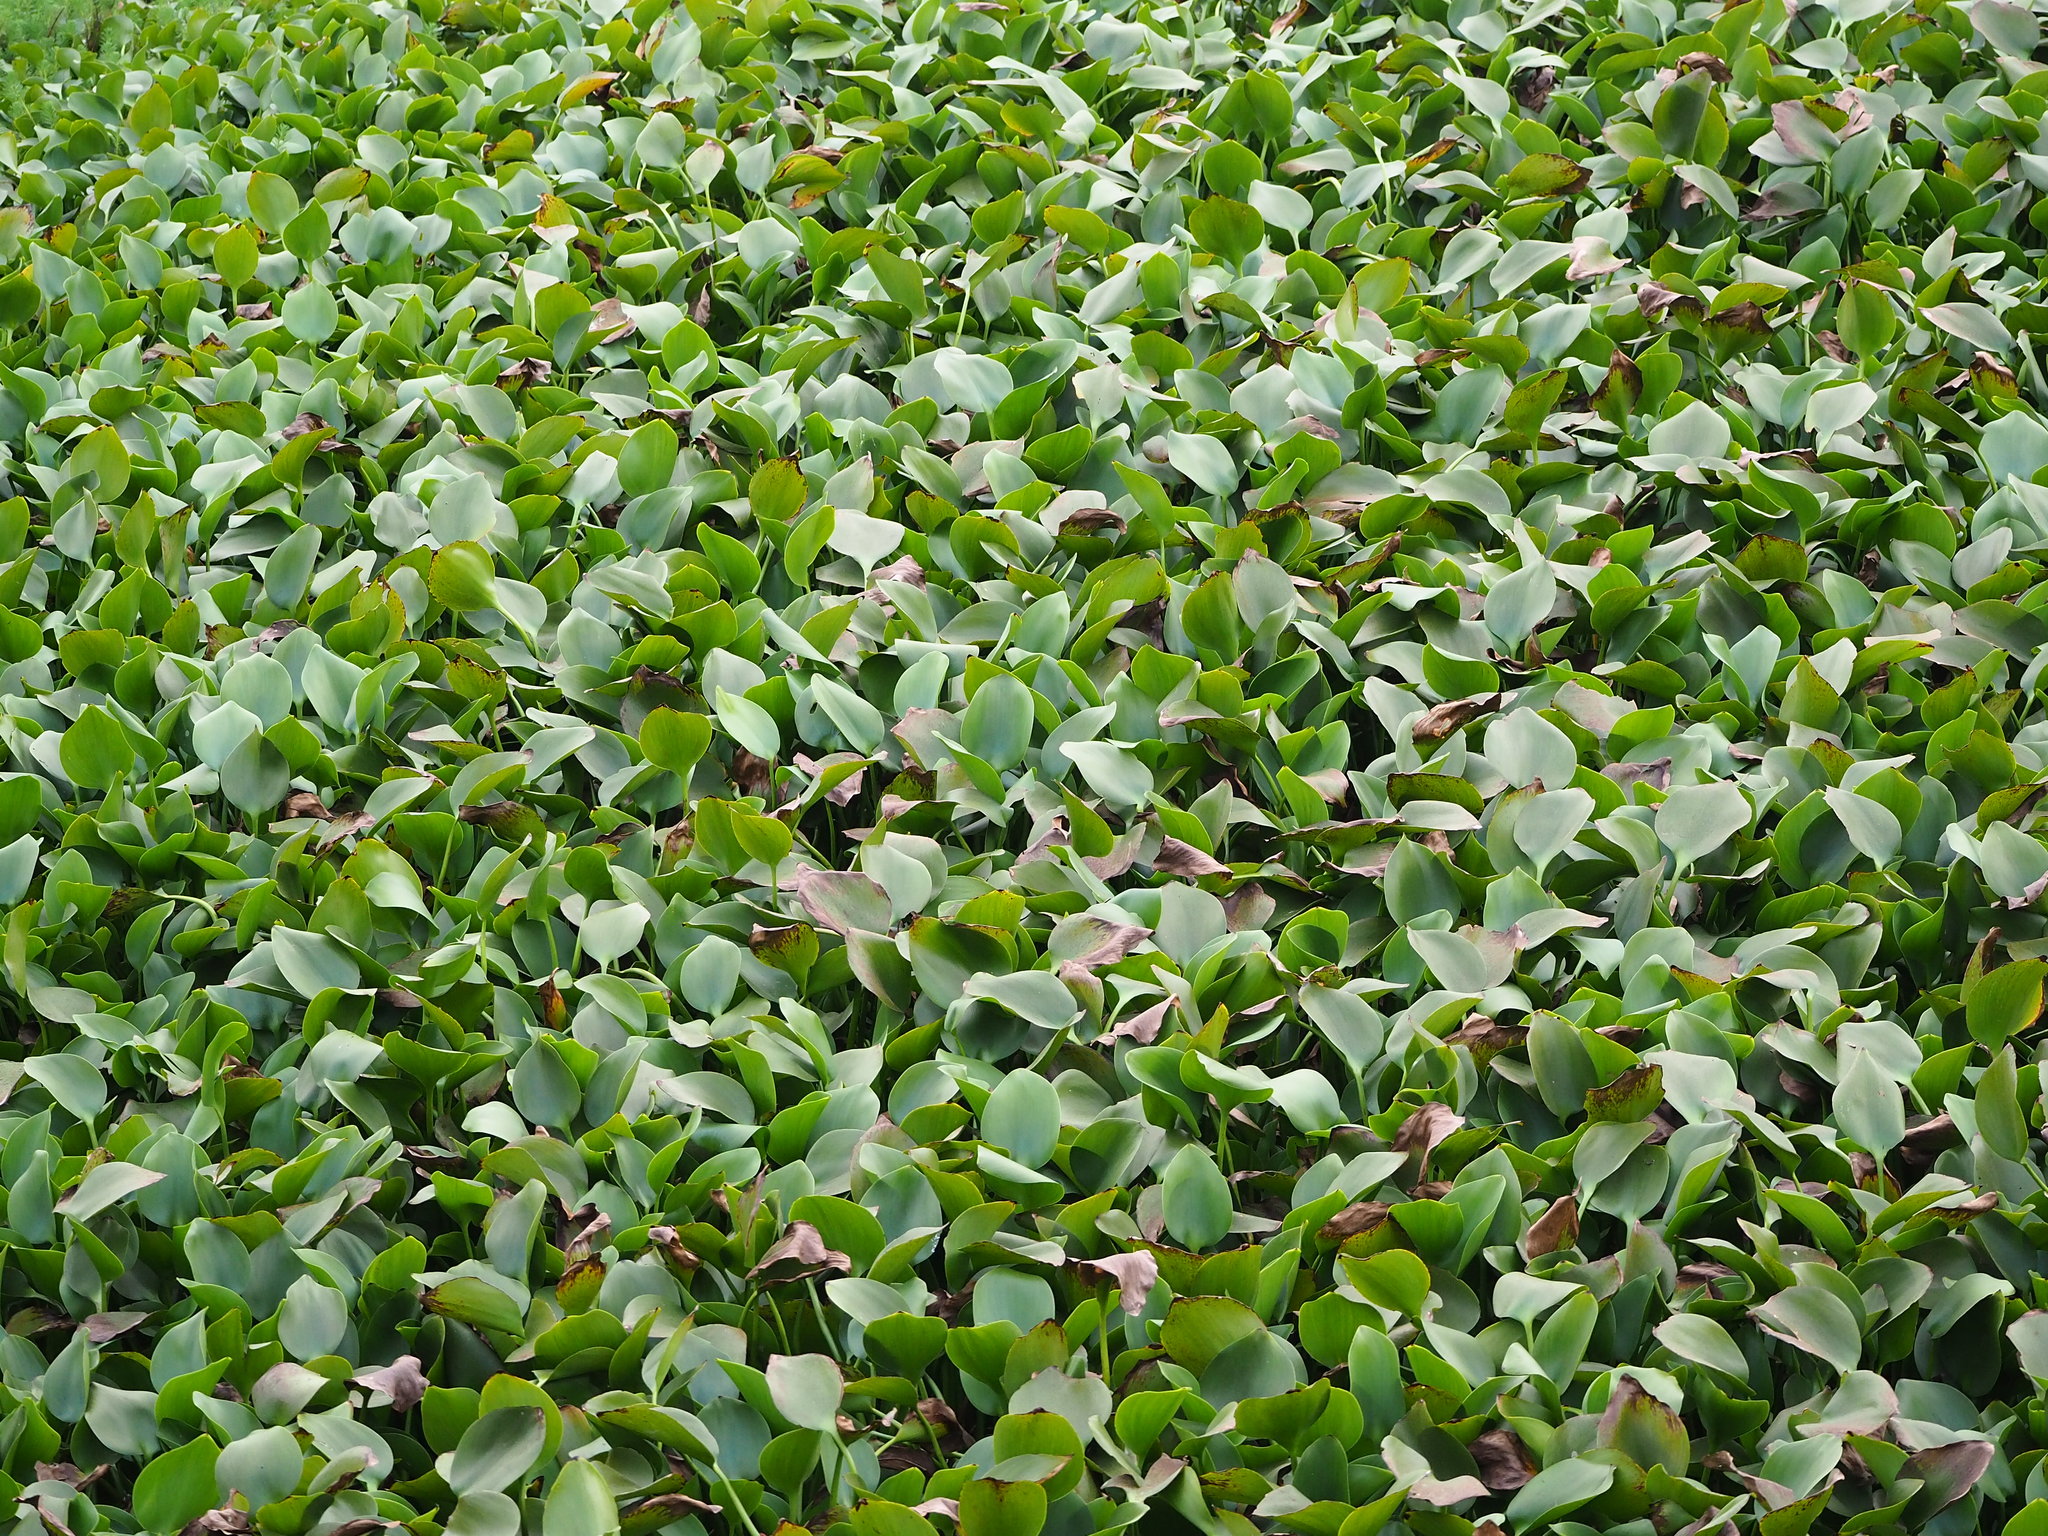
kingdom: Plantae
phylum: Tracheophyta
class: Liliopsida
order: Commelinales
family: Pontederiaceae
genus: Pontederia
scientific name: Pontederia crassipes
